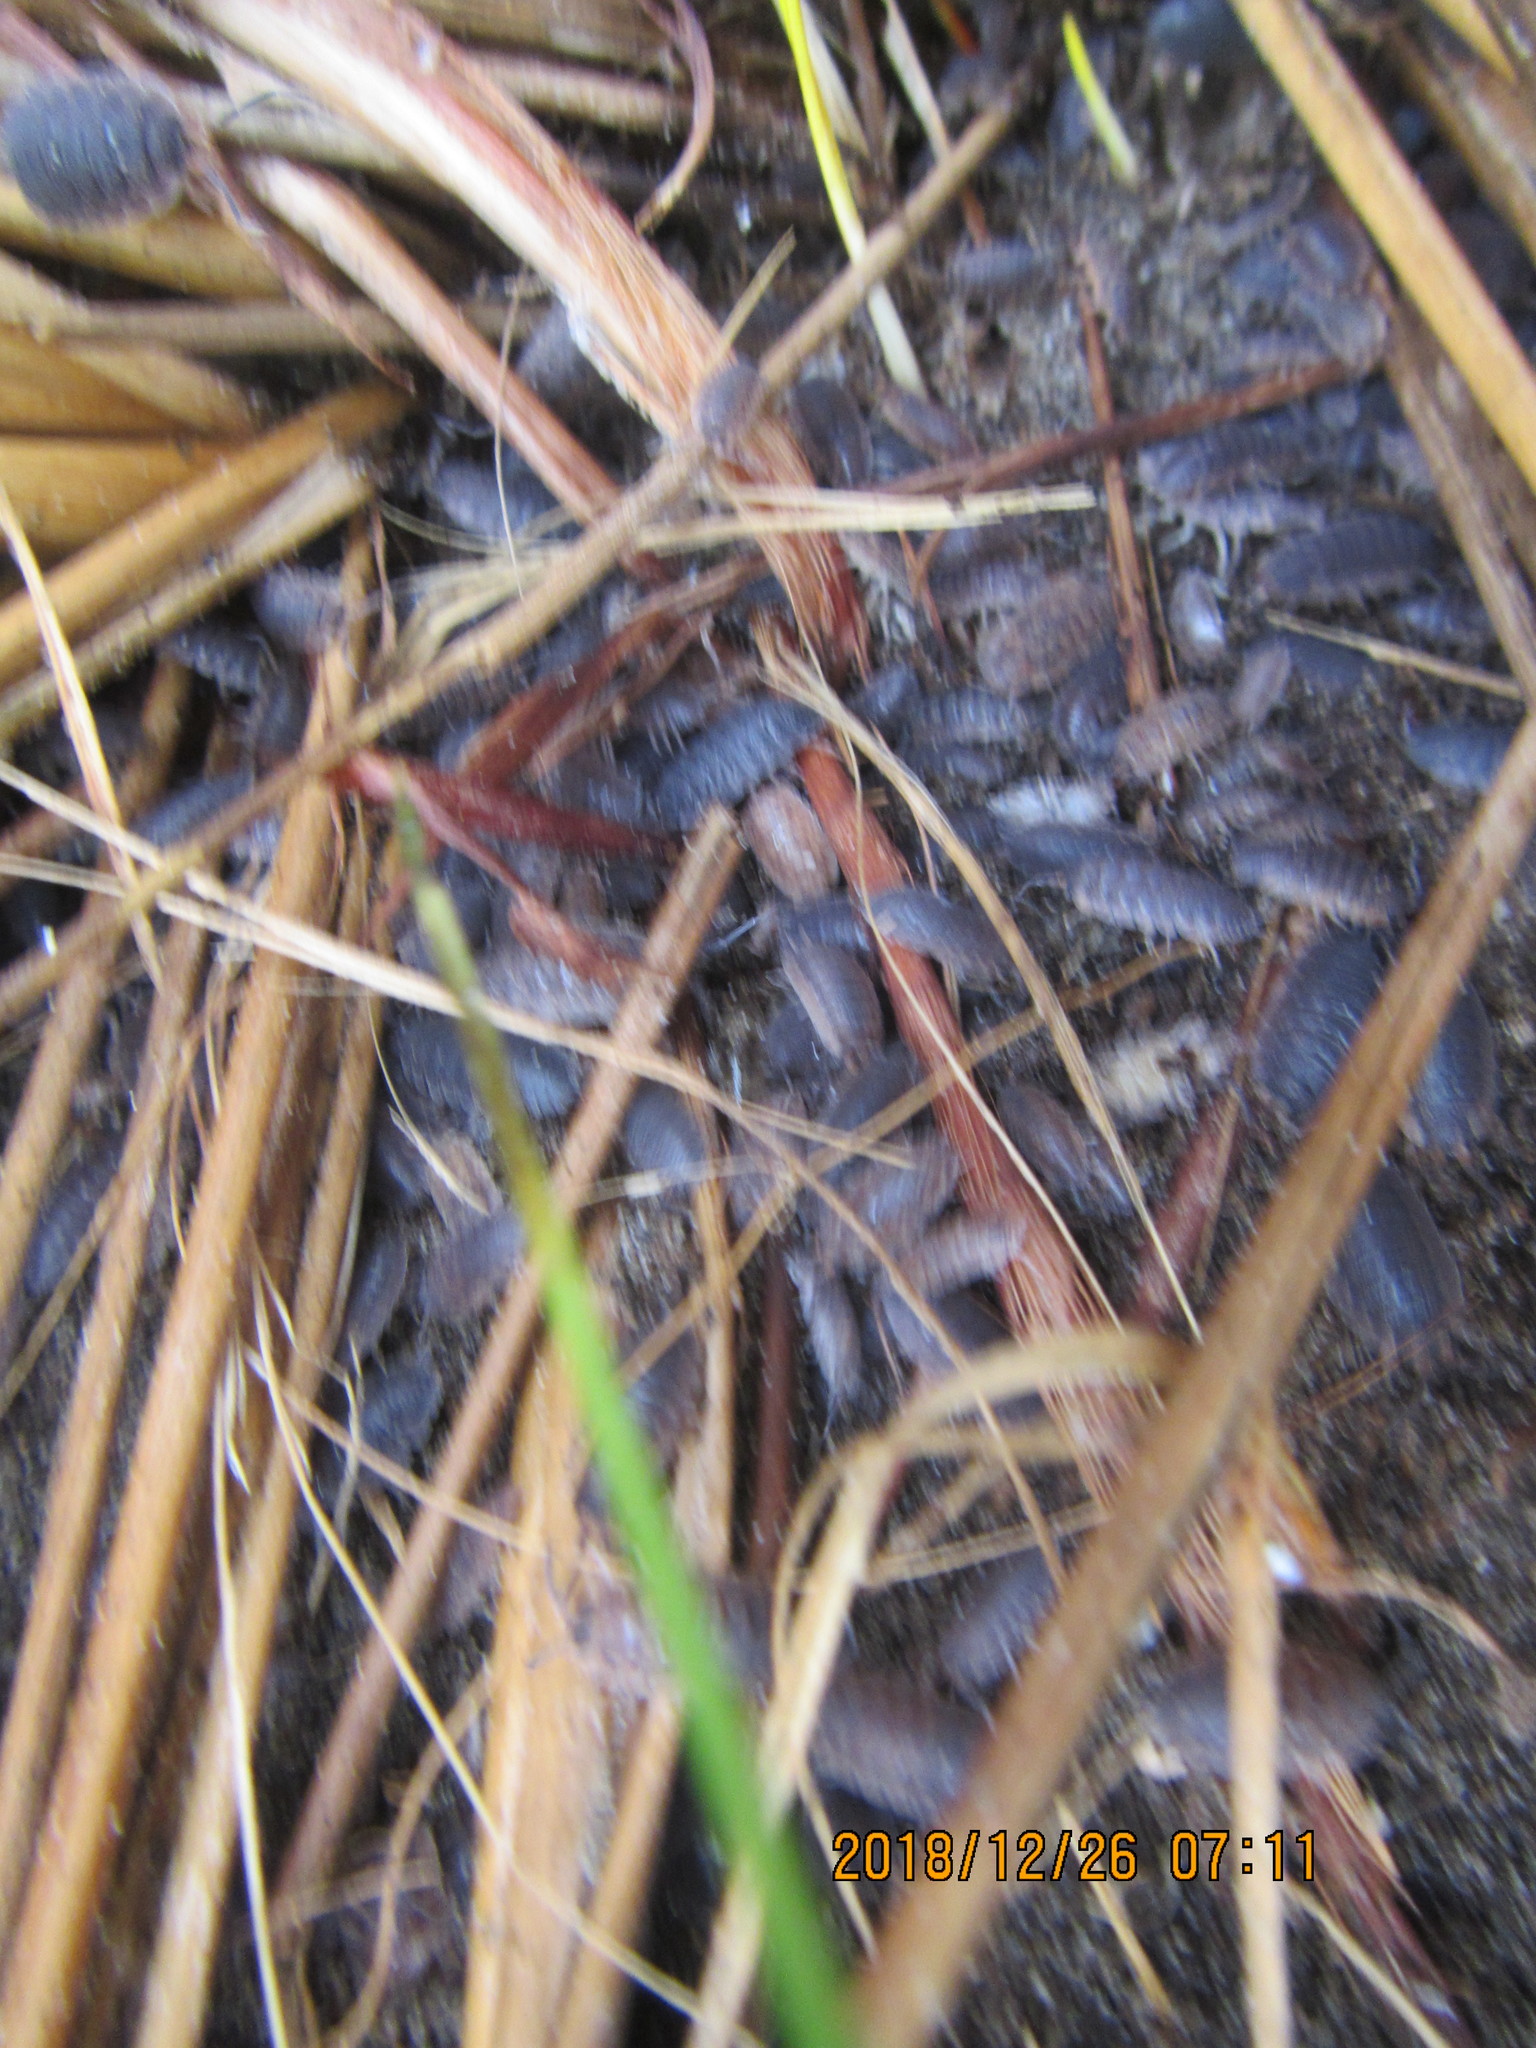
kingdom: Animalia
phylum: Arthropoda
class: Malacostraca
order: Isopoda
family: Porcellionidae
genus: Porcellio
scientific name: Porcellio scaber
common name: Common rough woodlouse
